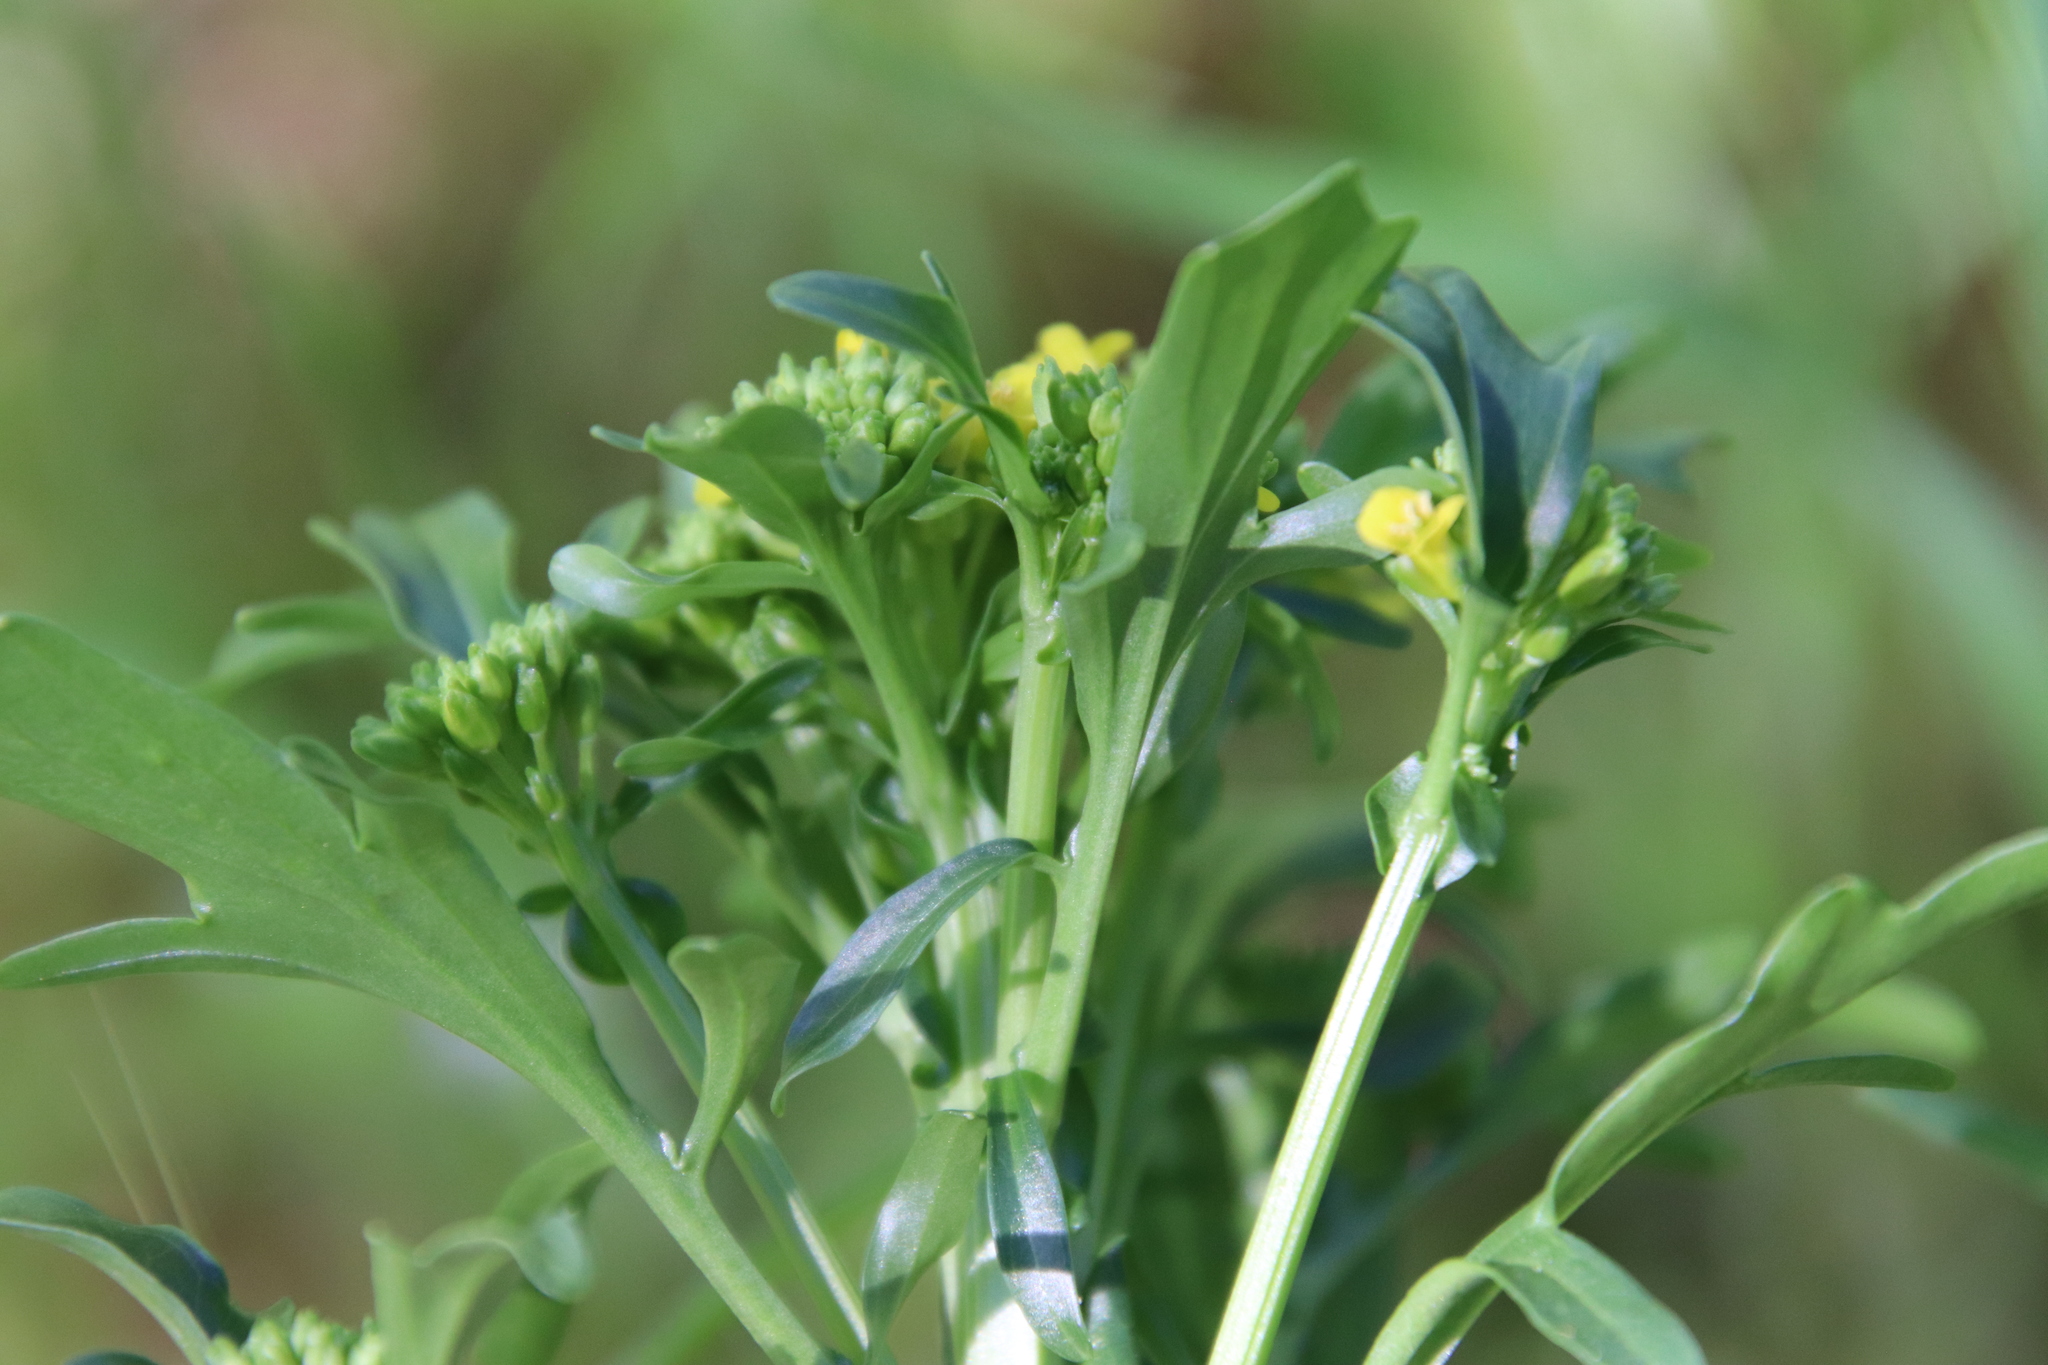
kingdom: Plantae
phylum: Tracheophyta
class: Magnoliopsida
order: Brassicales
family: Brassicaceae
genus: Barbarea
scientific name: Barbarea orthoceras
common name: American wintercress
